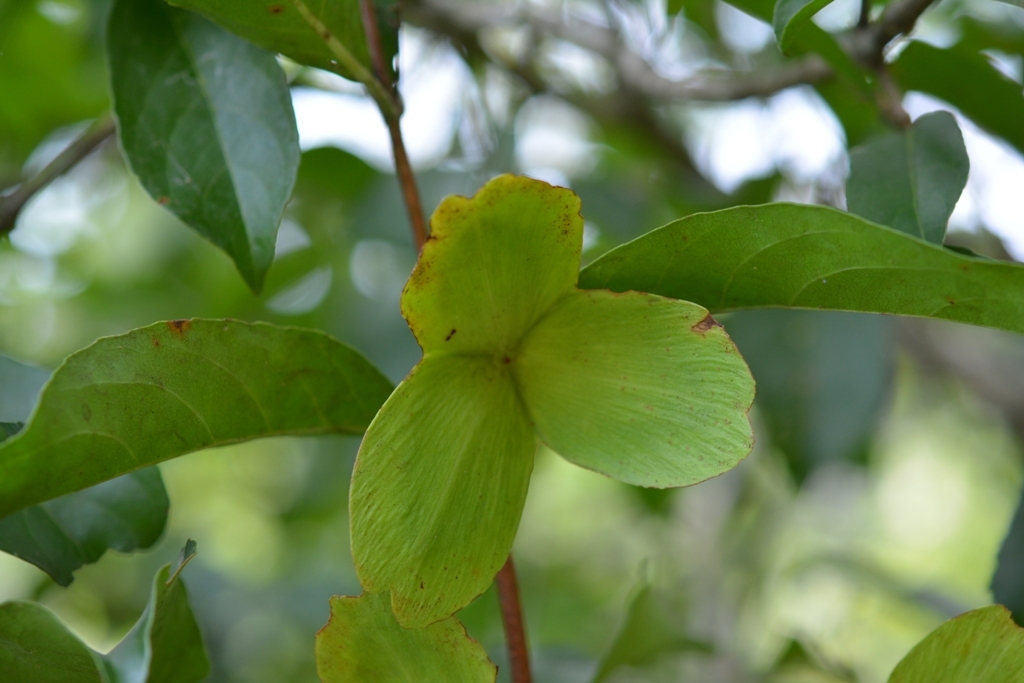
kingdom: Plantae
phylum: Tracheophyta
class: Magnoliopsida
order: Celastrales
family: Celastraceae
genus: Semialarium
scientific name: Semialarium mexicanum
